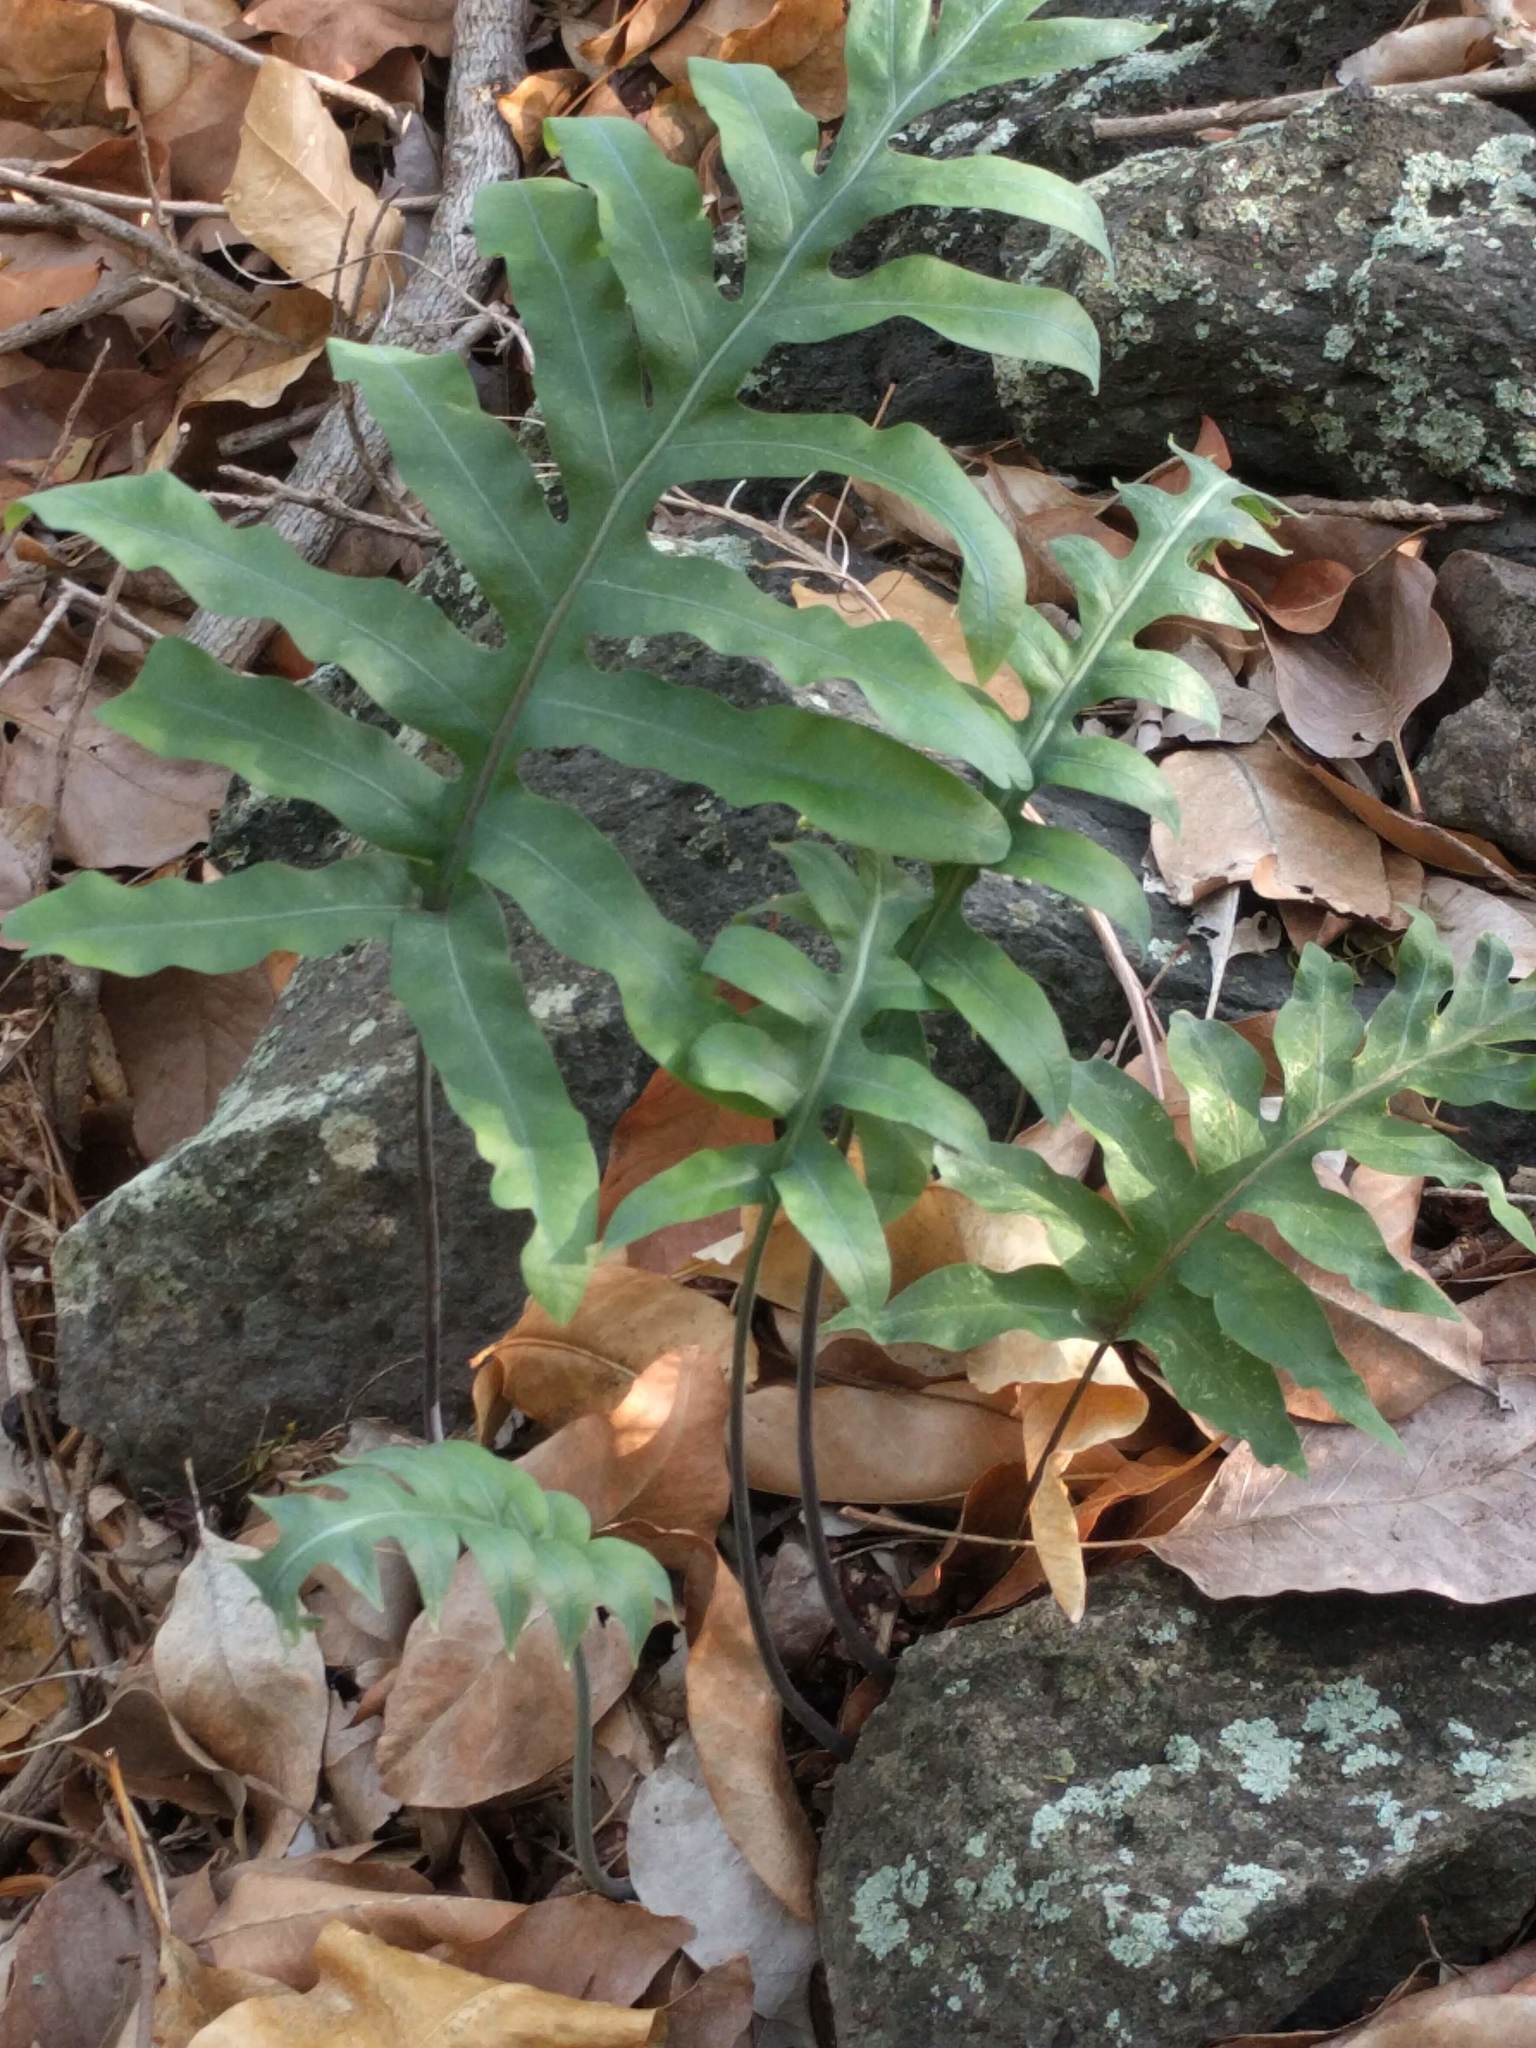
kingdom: Plantae
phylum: Tracheophyta
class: Polypodiopsida
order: Polypodiales
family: Polypodiaceae
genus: Phlebodium
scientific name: Phlebodium aureum
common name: Gold-foot fern
